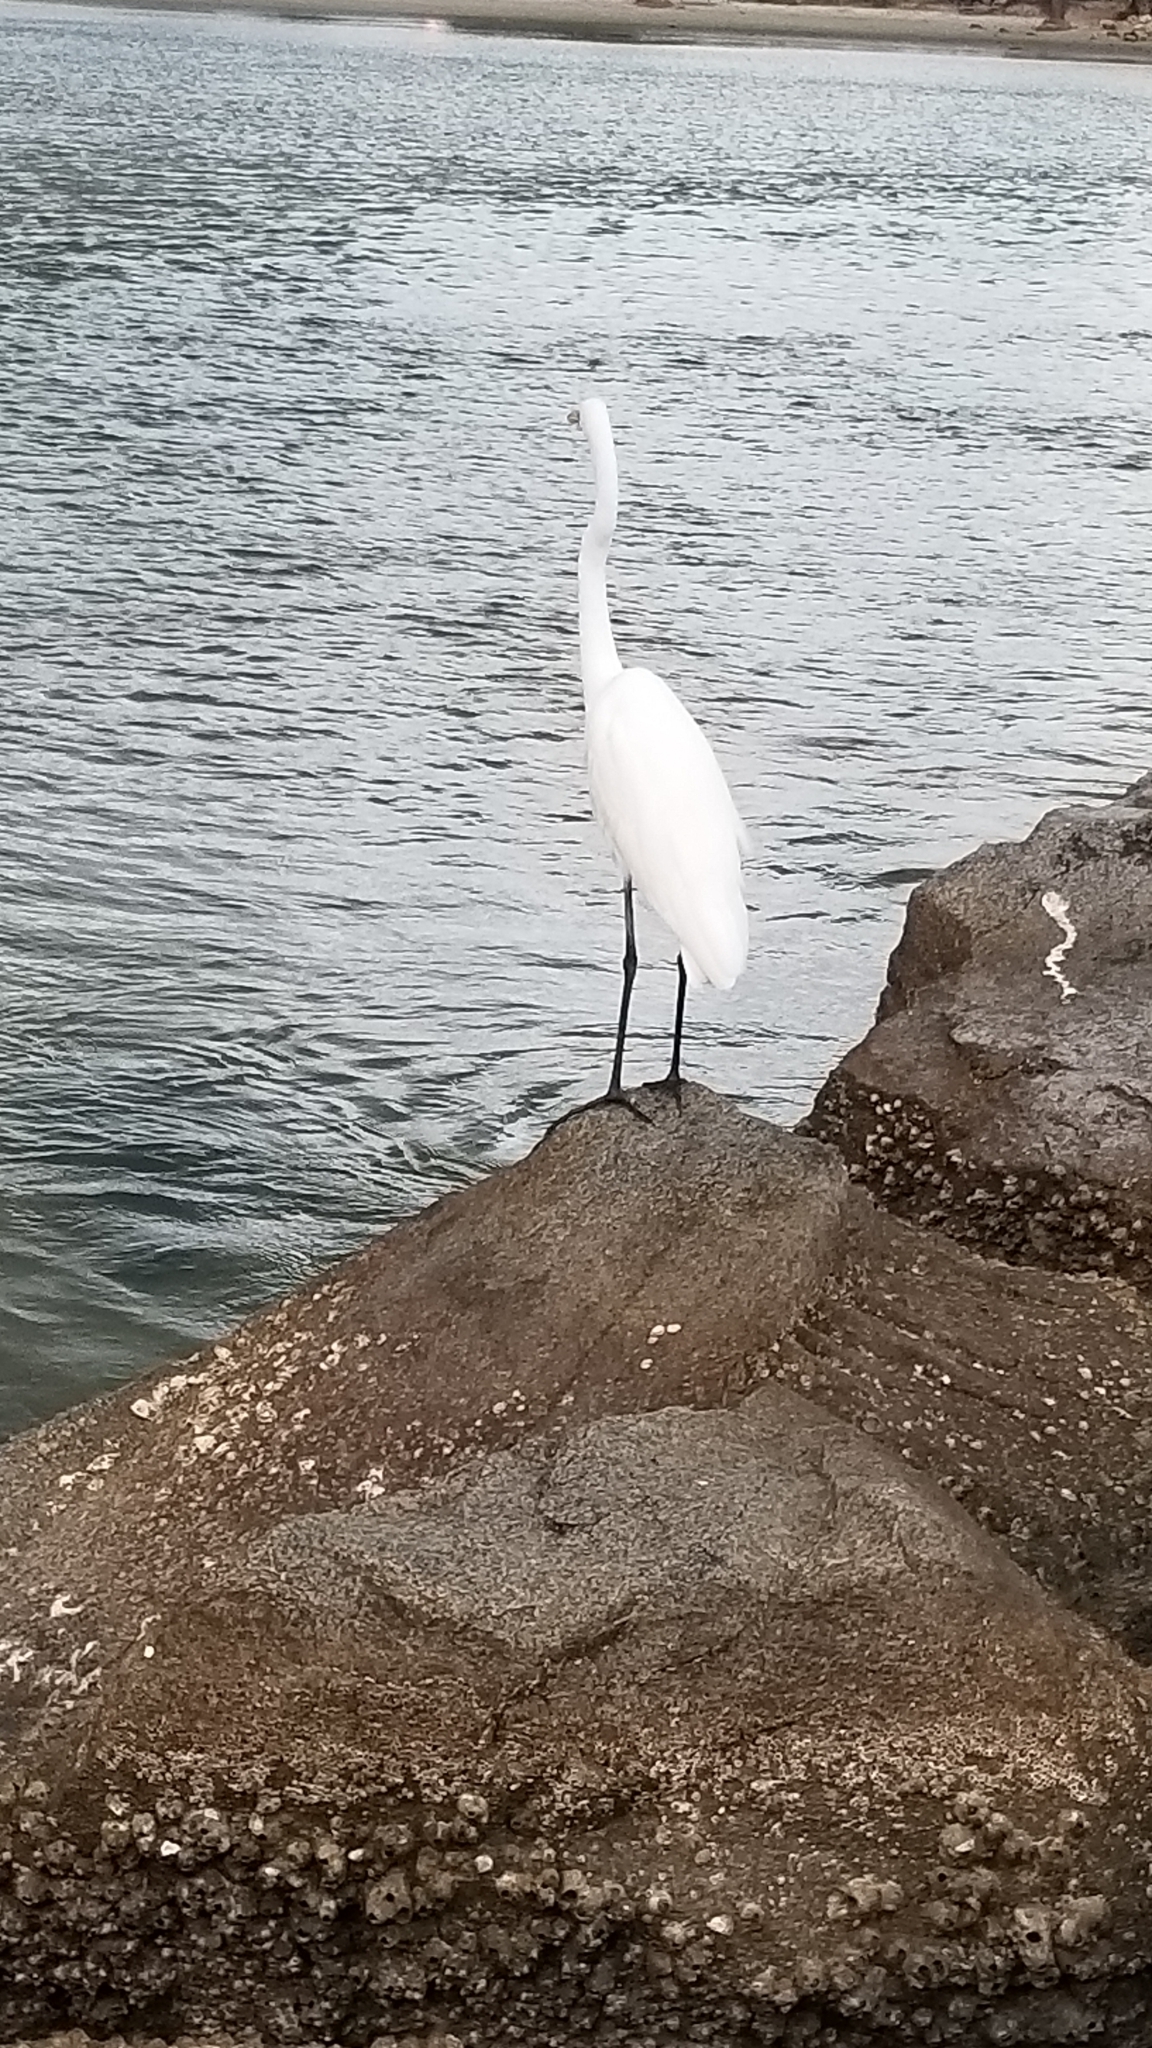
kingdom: Animalia
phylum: Chordata
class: Aves
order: Pelecaniformes
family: Ardeidae
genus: Ardea
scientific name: Ardea alba
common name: Great egret
